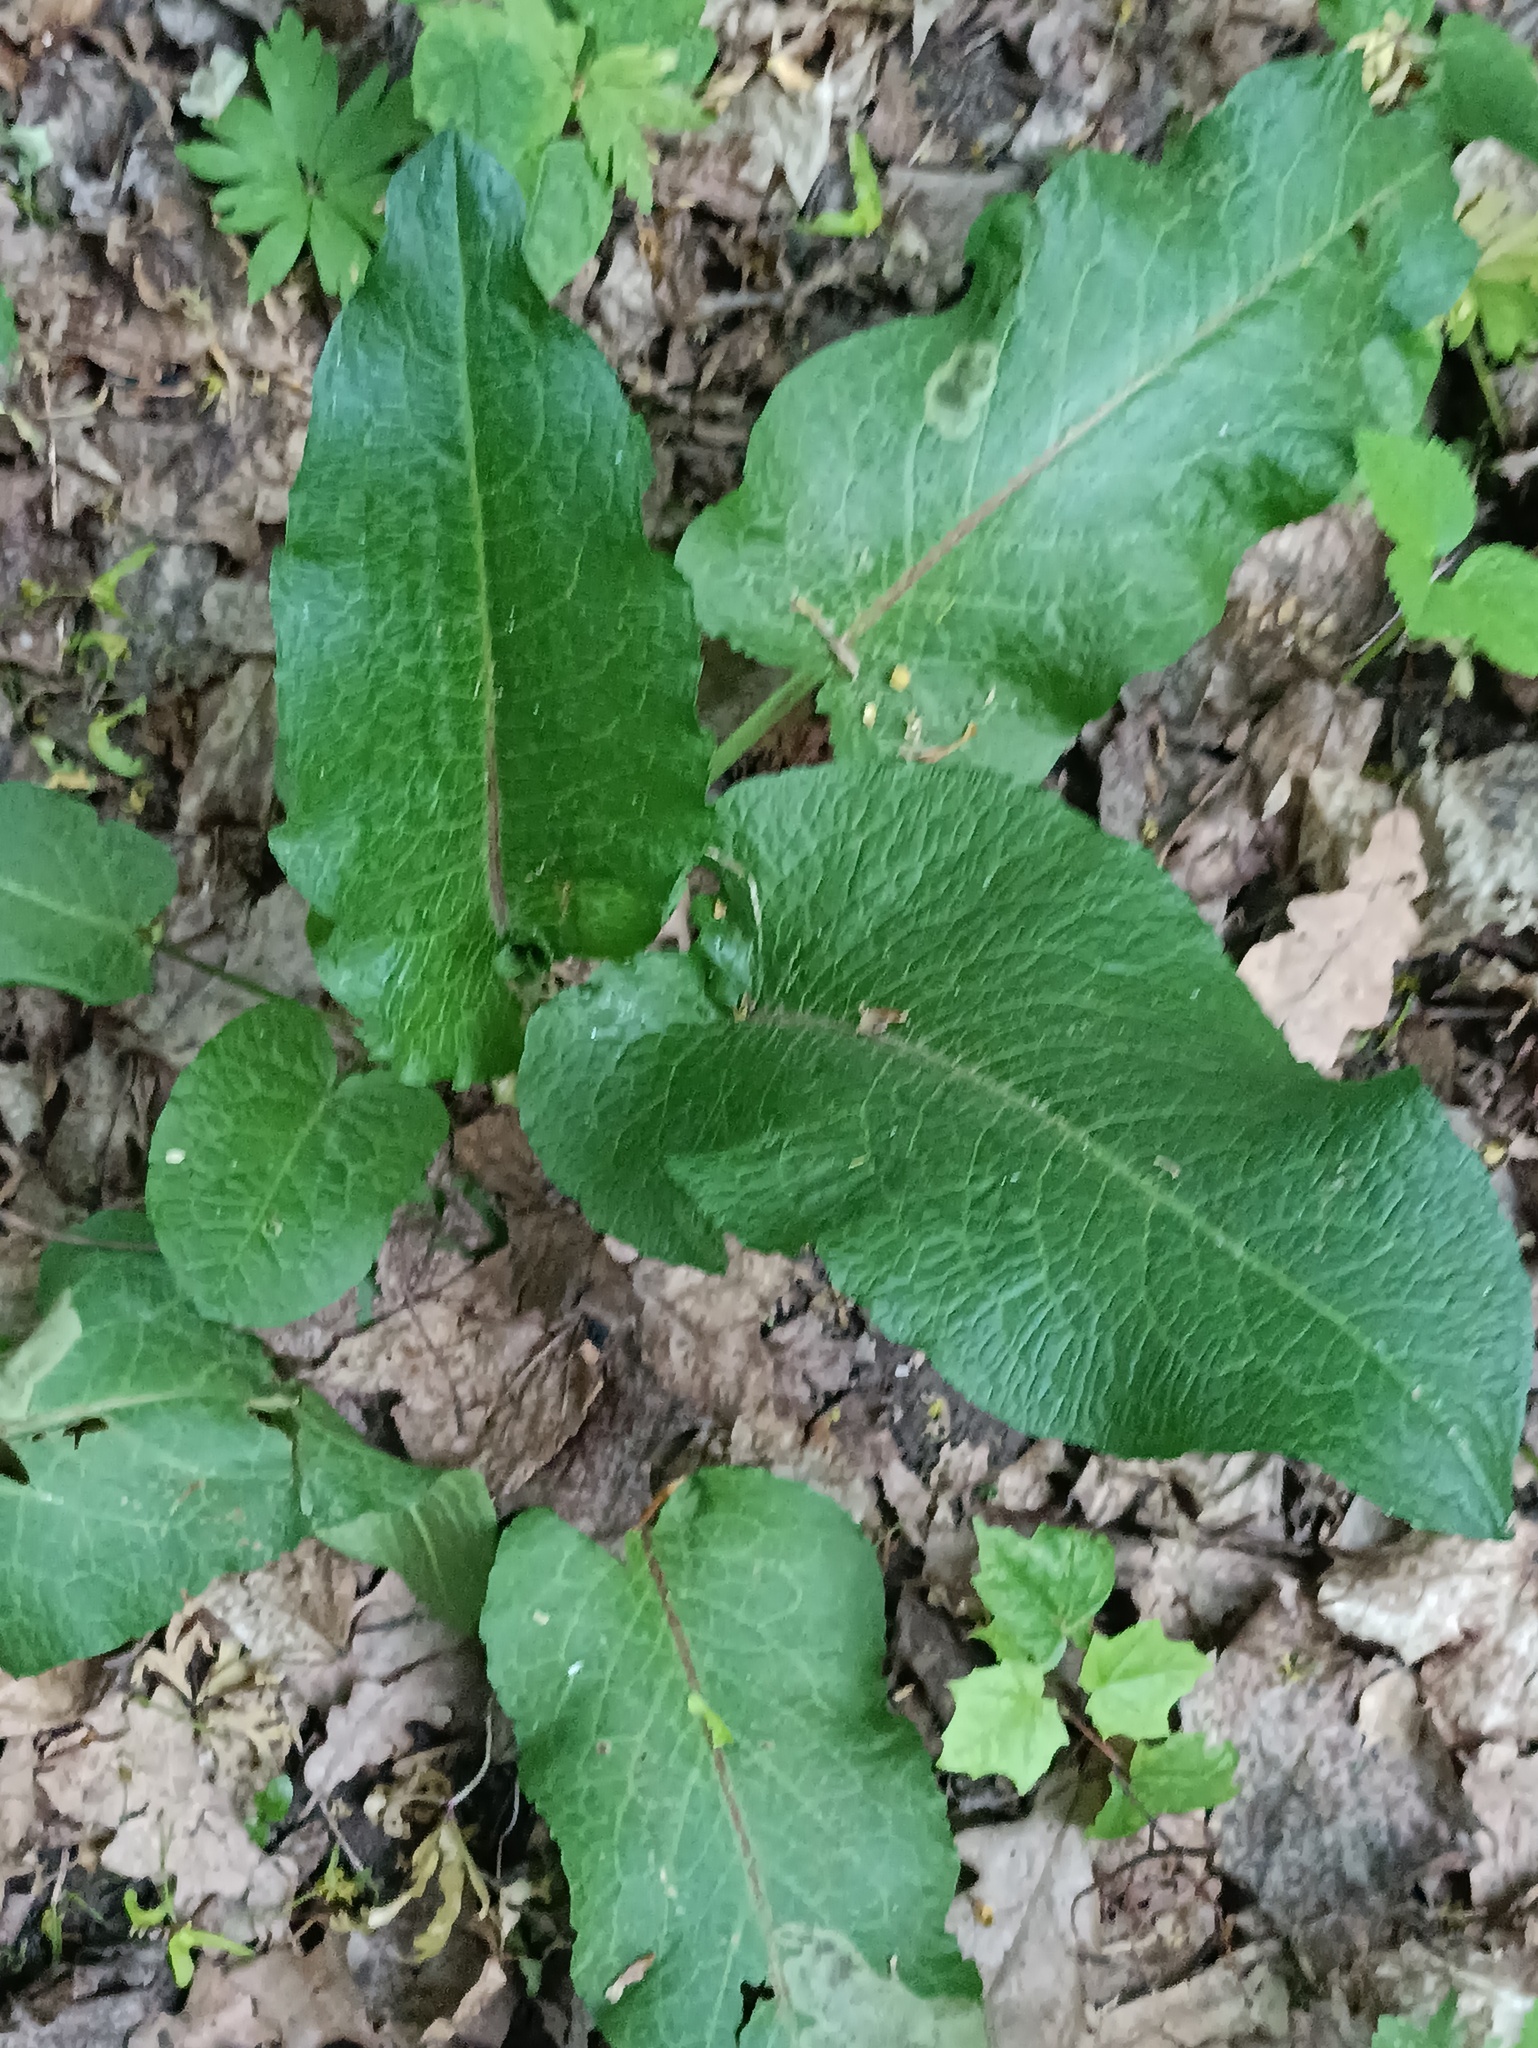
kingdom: Plantae
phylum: Tracheophyta
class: Magnoliopsida
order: Caryophyllales
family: Polygonaceae
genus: Rumex
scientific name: Rumex obtusifolius
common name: Bitter dock
